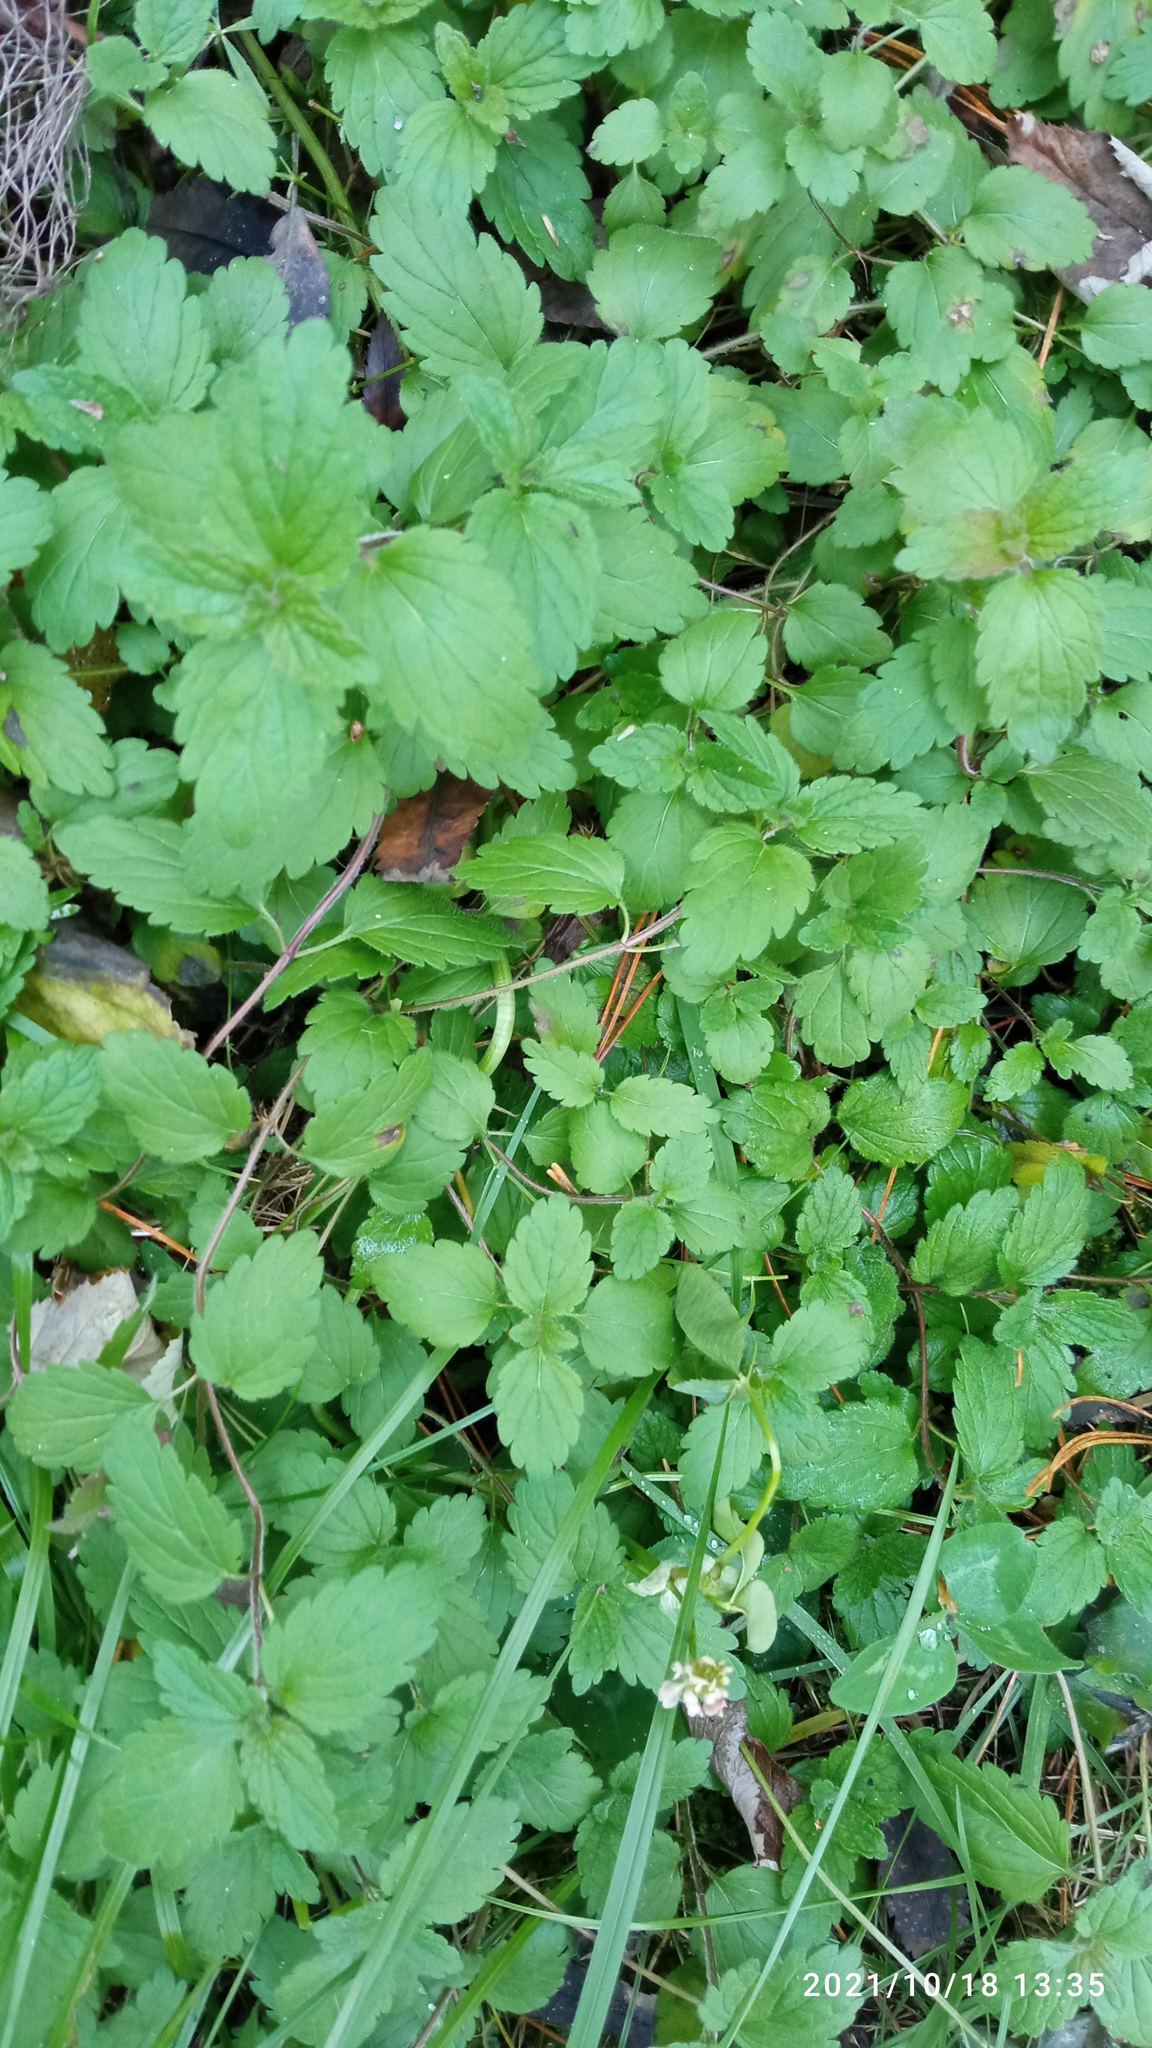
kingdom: Plantae
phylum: Tracheophyta
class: Magnoliopsida
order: Lamiales
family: Plantaginaceae
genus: Veronica
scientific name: Veronica chamaedrys
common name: Germander speedwell
